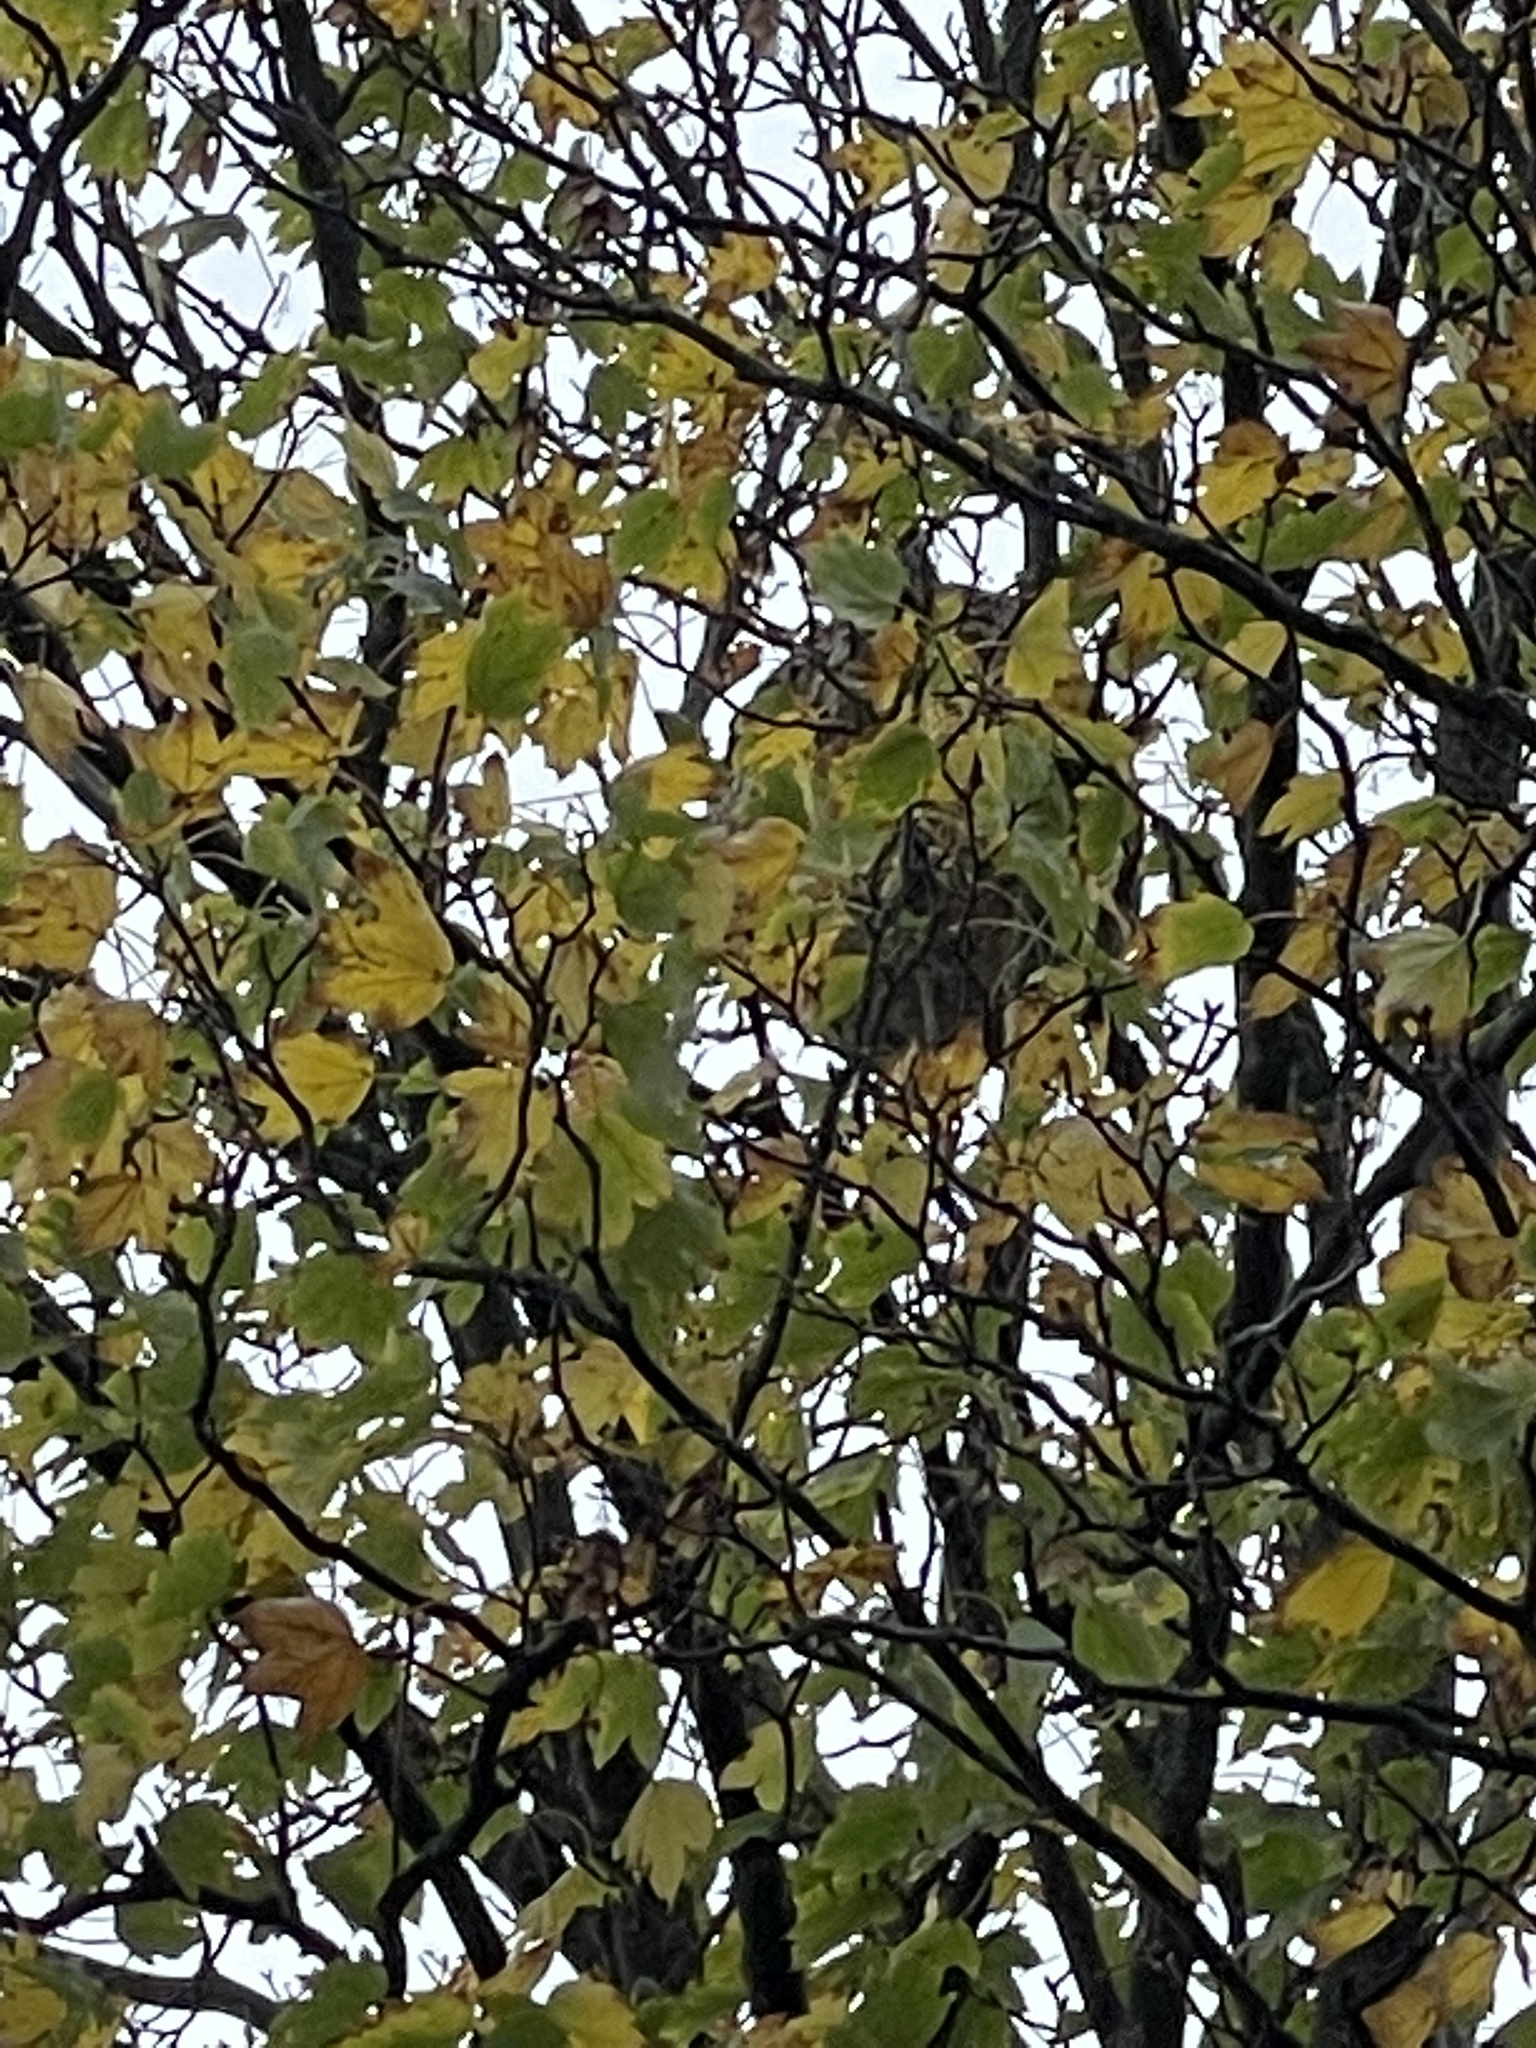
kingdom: Animalia
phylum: Arthropoda
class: Insecta
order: Hymenoptera
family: Vespidae
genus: Vespa
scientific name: Vespa velutina
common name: Asian hornet
